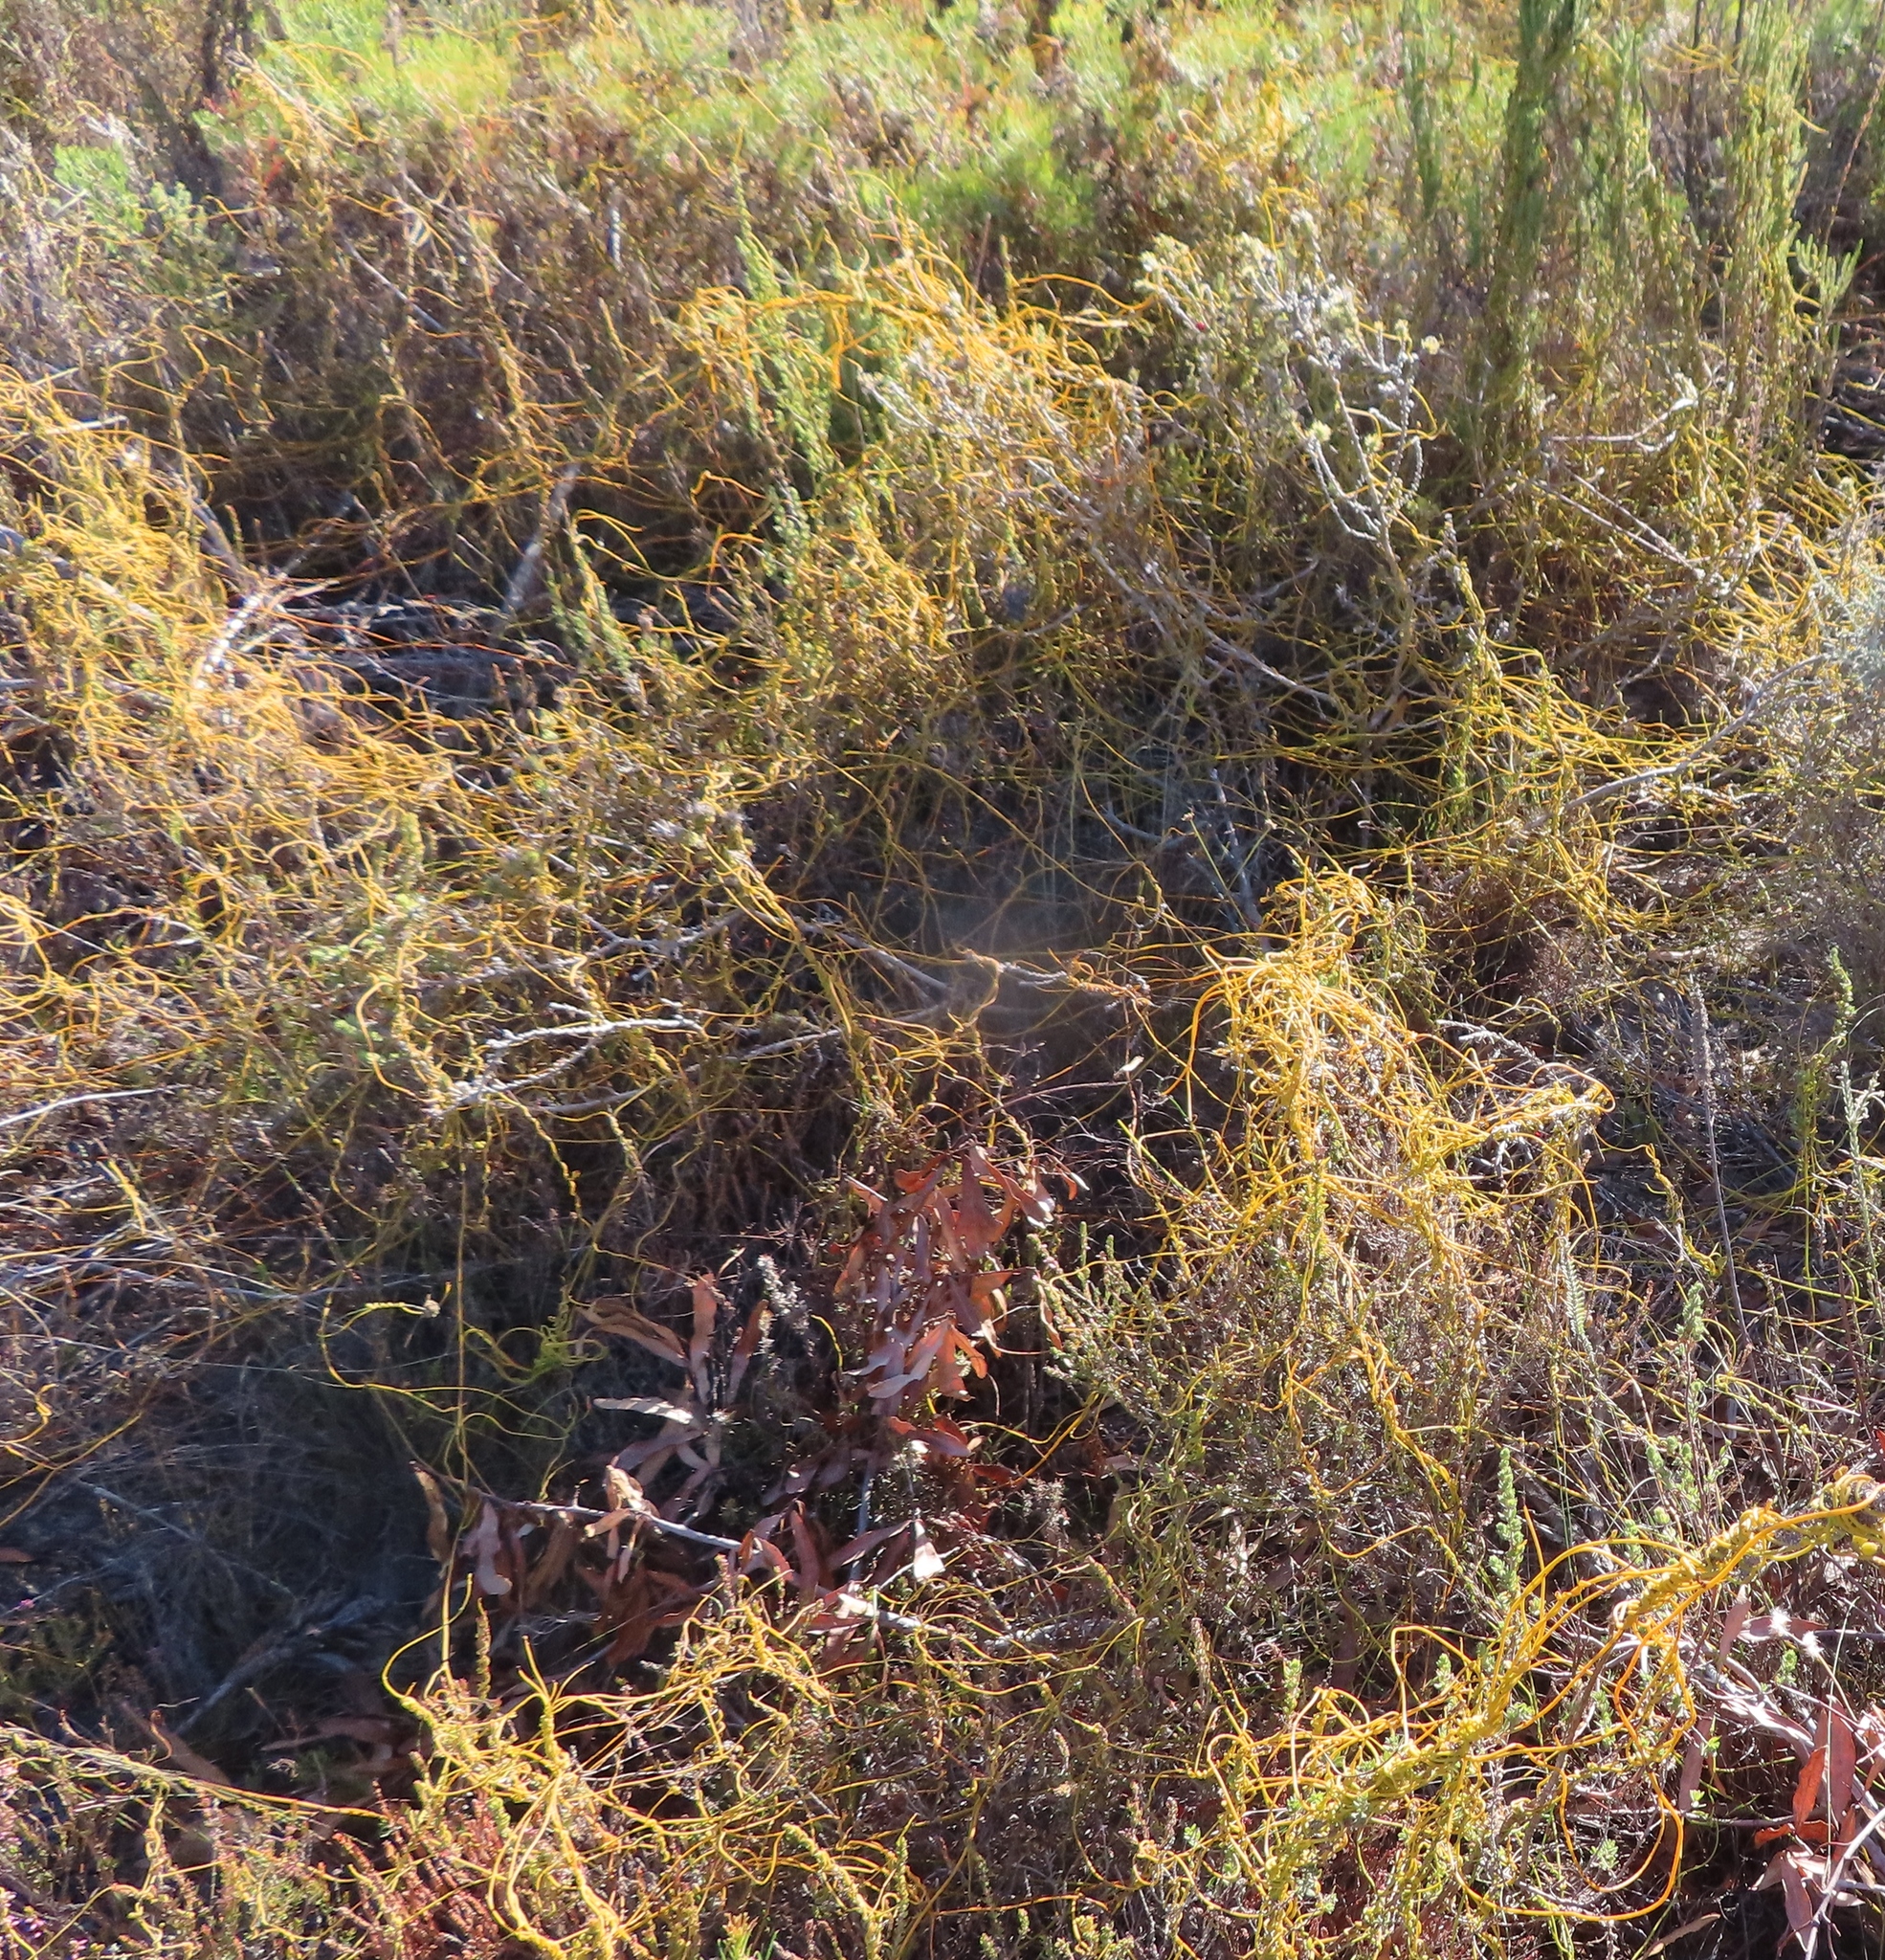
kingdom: Plantae
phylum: Tracheophyta
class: Magnoliopsida
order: Laurales
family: Lauraceae
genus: Cassytha
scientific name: Cassytha ciliolata
